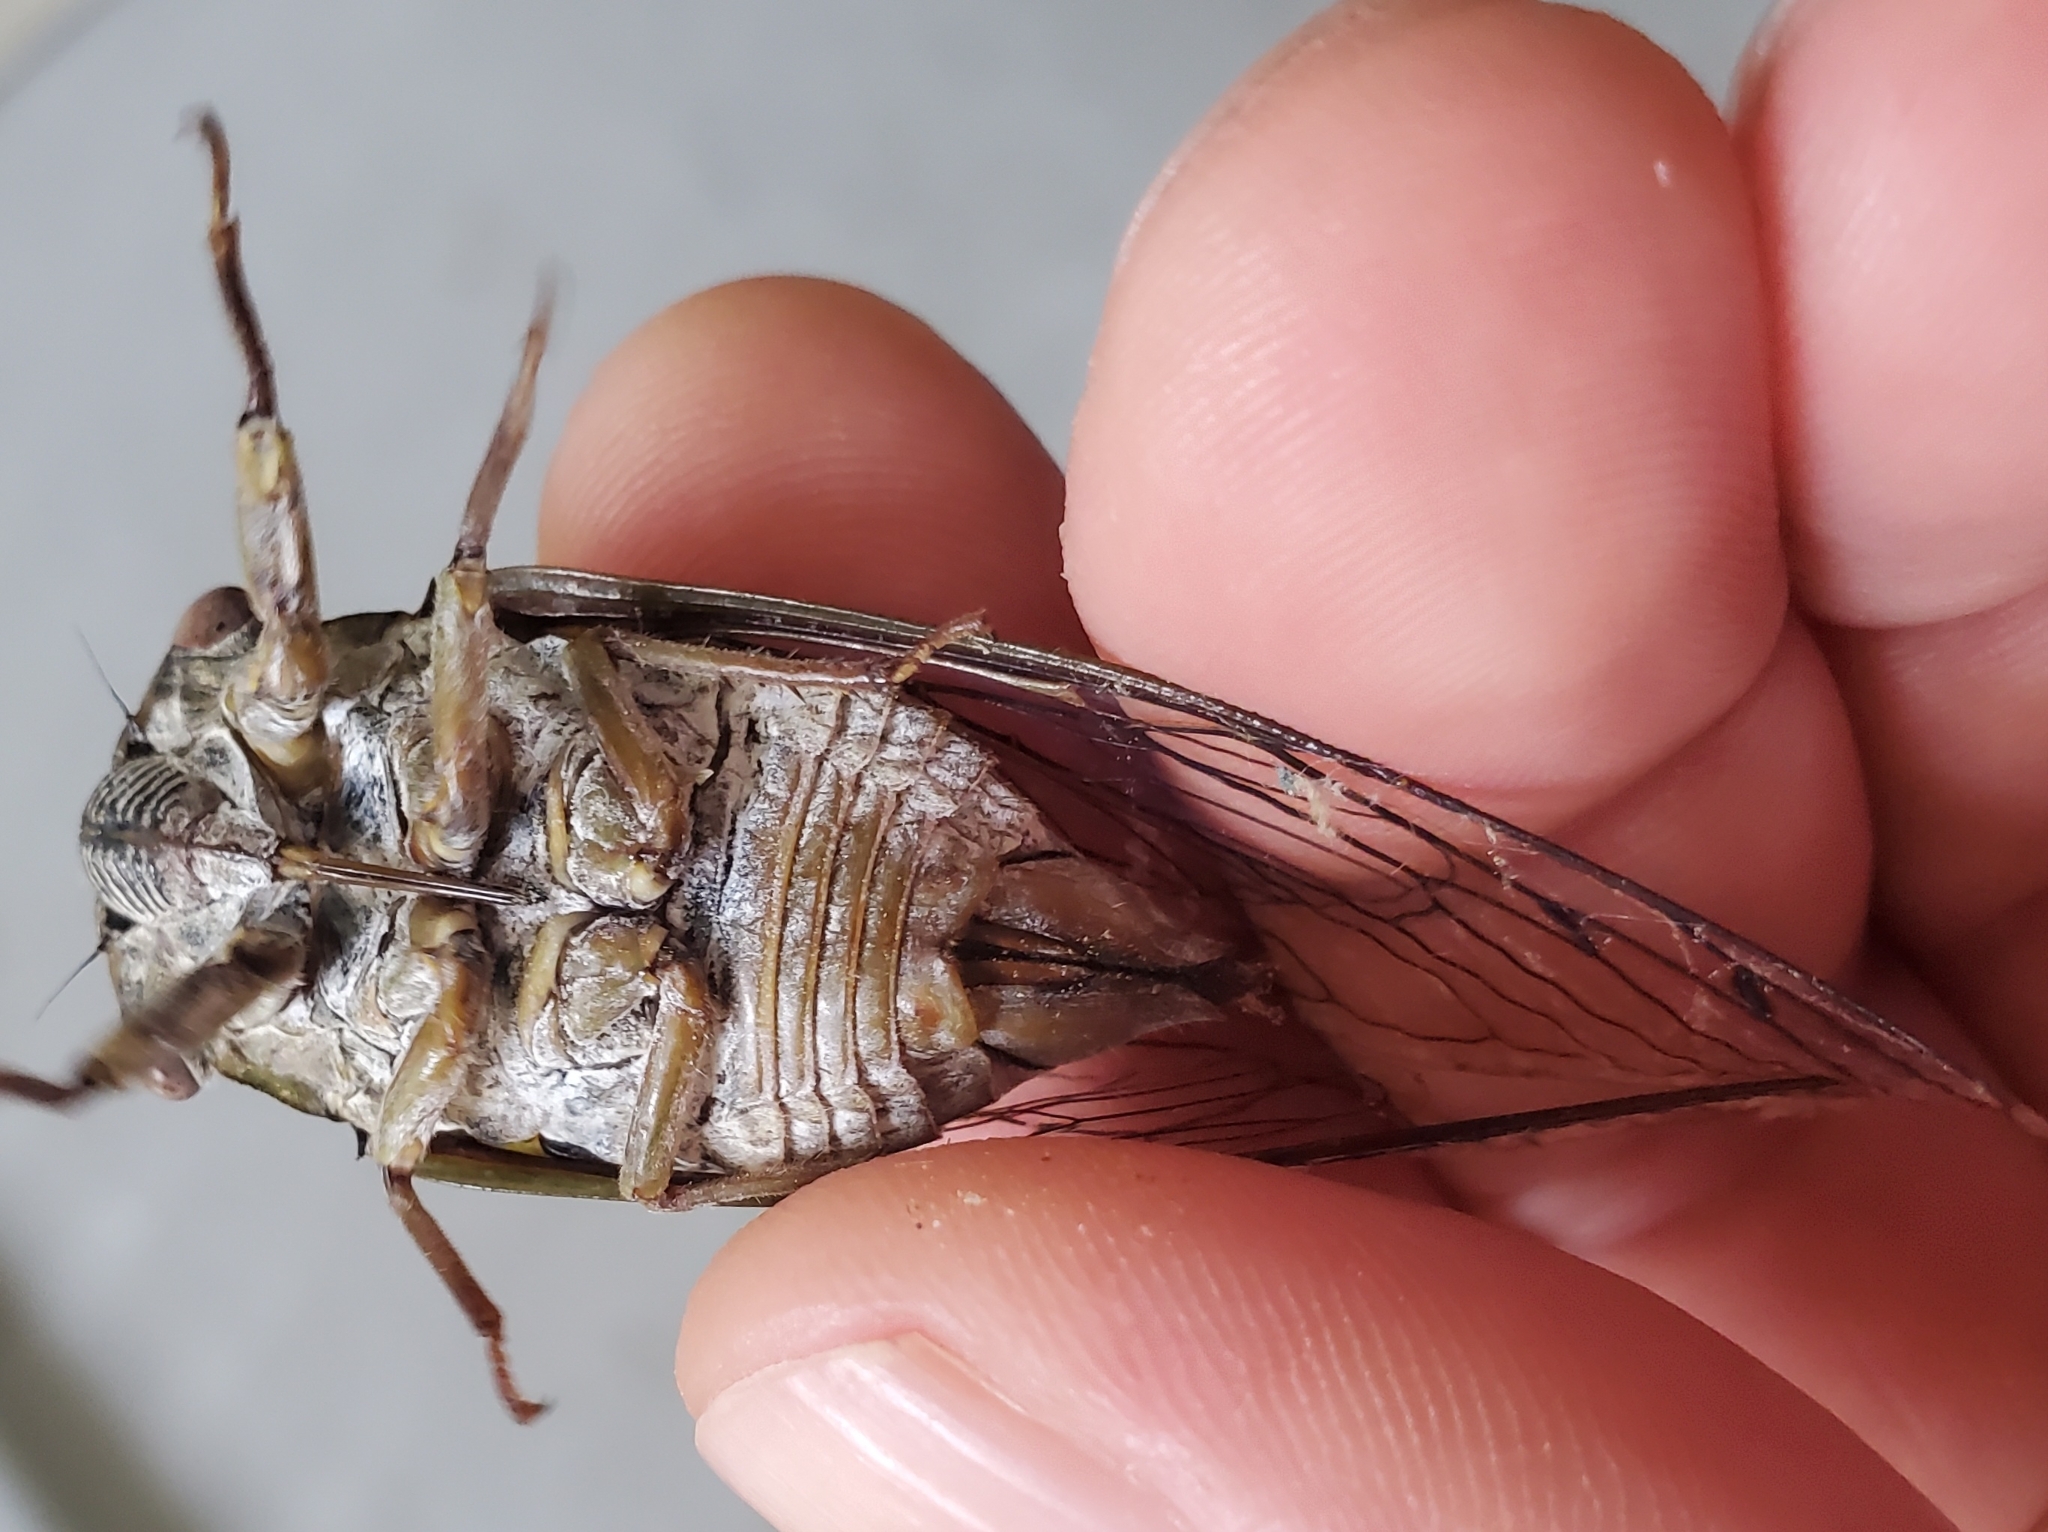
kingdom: Animalia
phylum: Arthropoda
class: Insecta
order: Hemiptera
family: Cicadidae
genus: Diceroprocta
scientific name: Diceroprocta grossa
